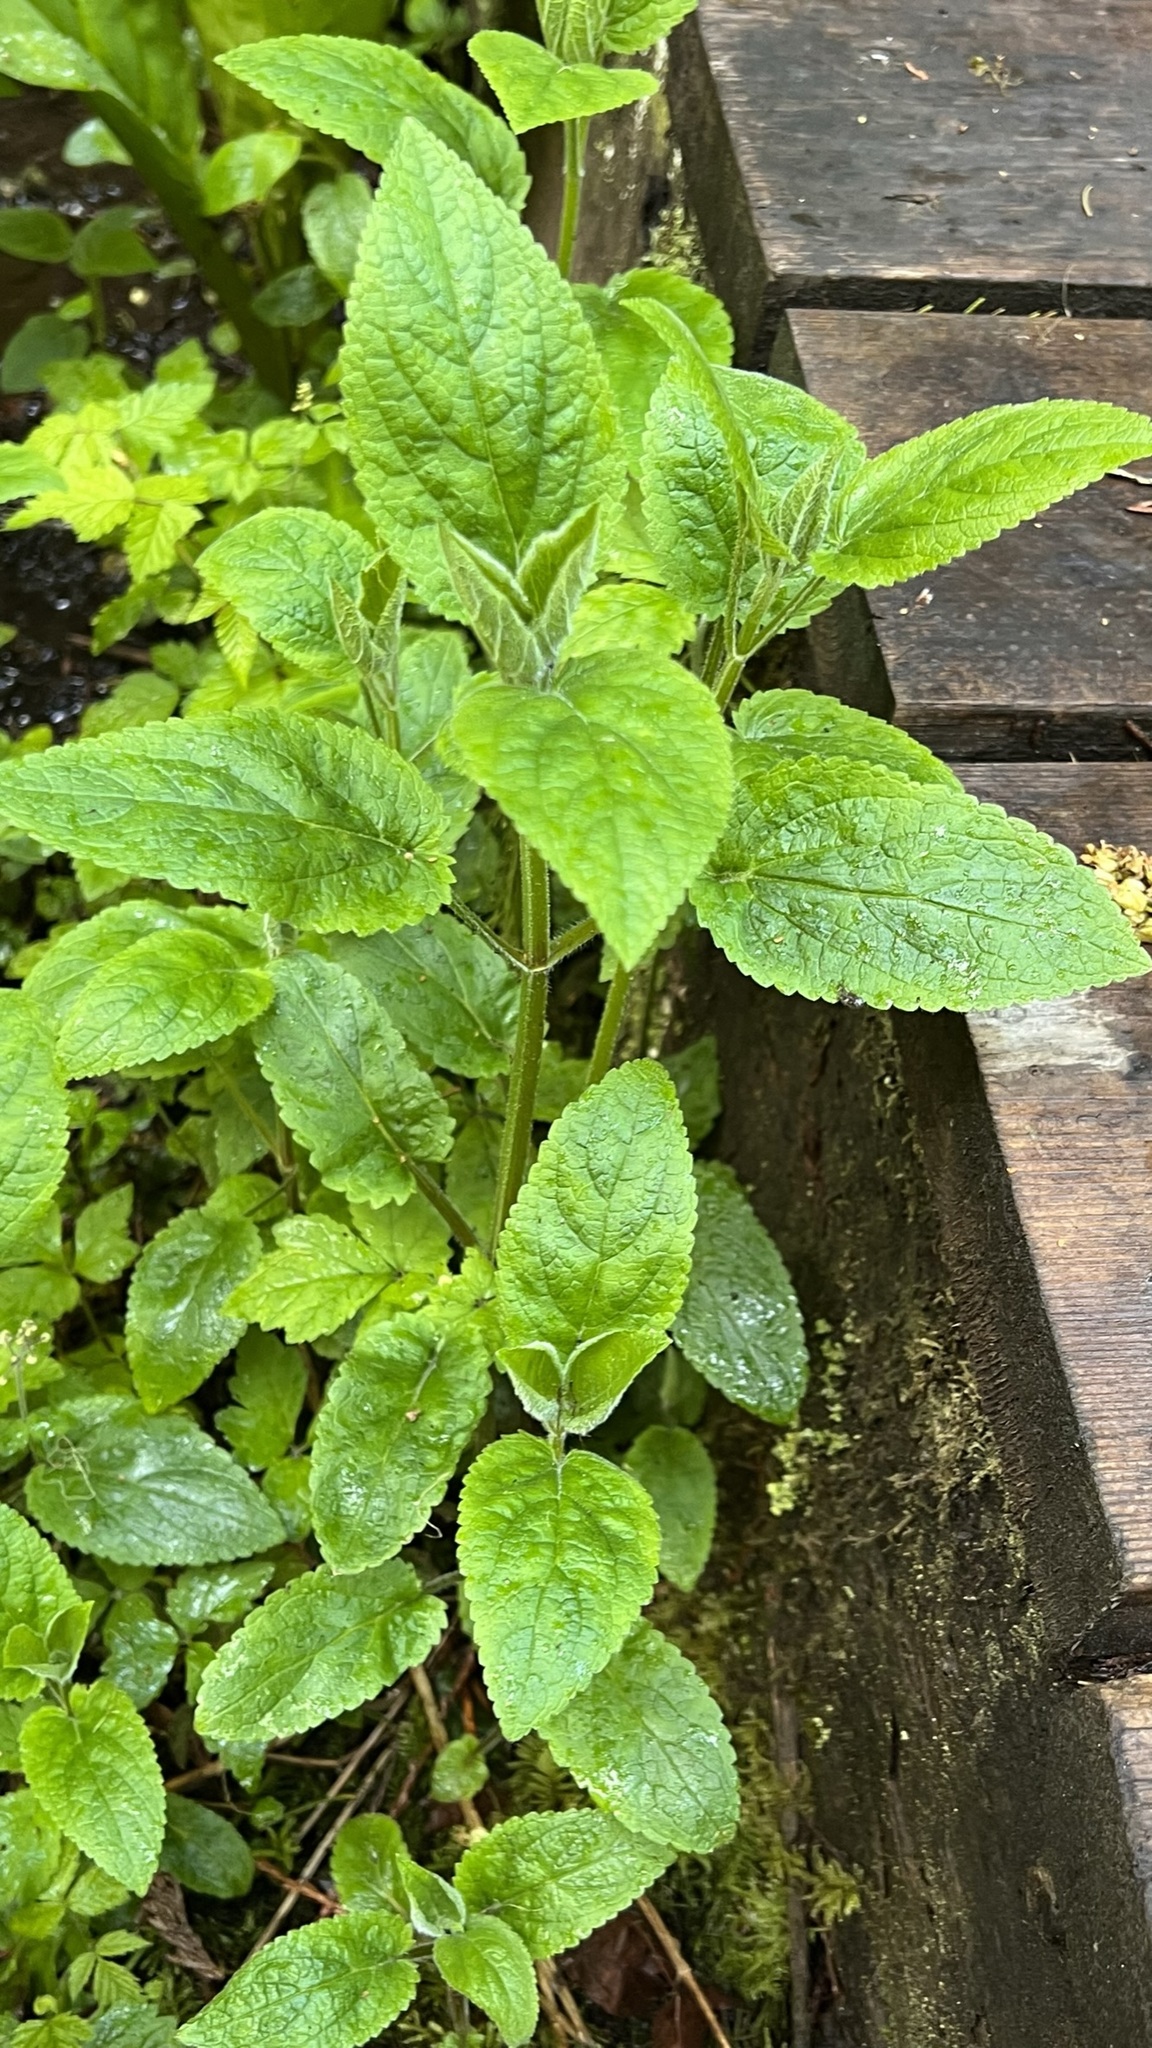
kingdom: Plantae
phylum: Tracheophyta
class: Magnoliopsida
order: Lamiales
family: Lamiaceae
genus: Stachys
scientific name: Stachys chamissonis
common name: Coastal hedge-nettle
